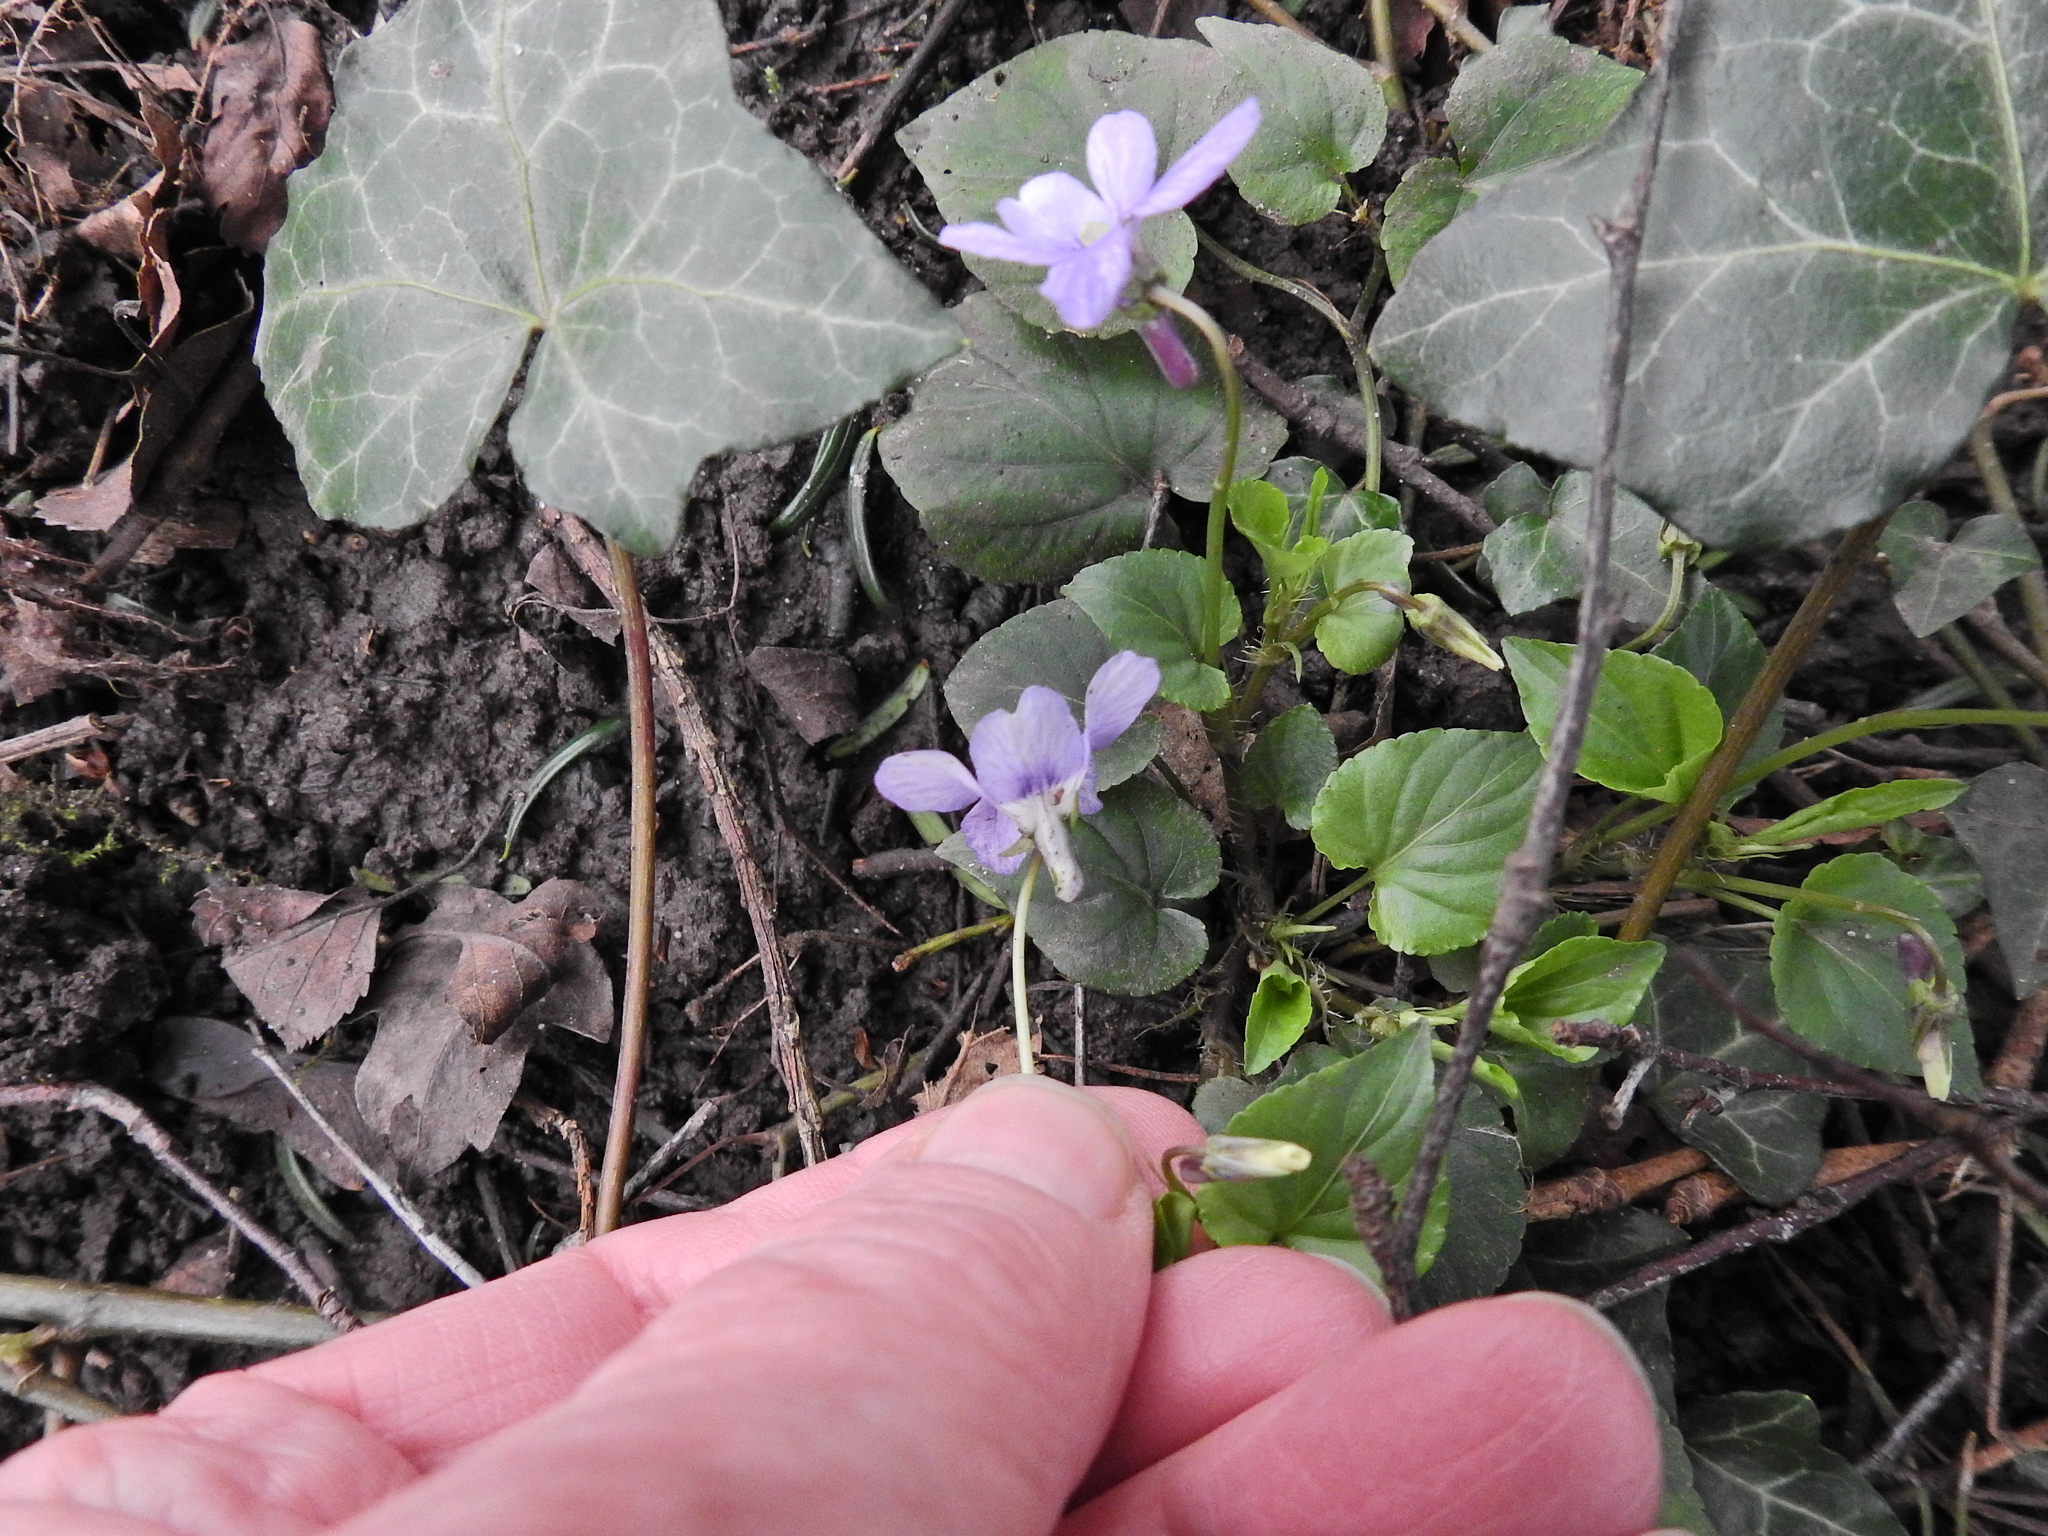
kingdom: Plantae
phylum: Tracheophyta
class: Magnoliopsida
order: Malpighiales
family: Violaceae
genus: Viola
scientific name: Viola reichenbachiana
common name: Early dog-violet
